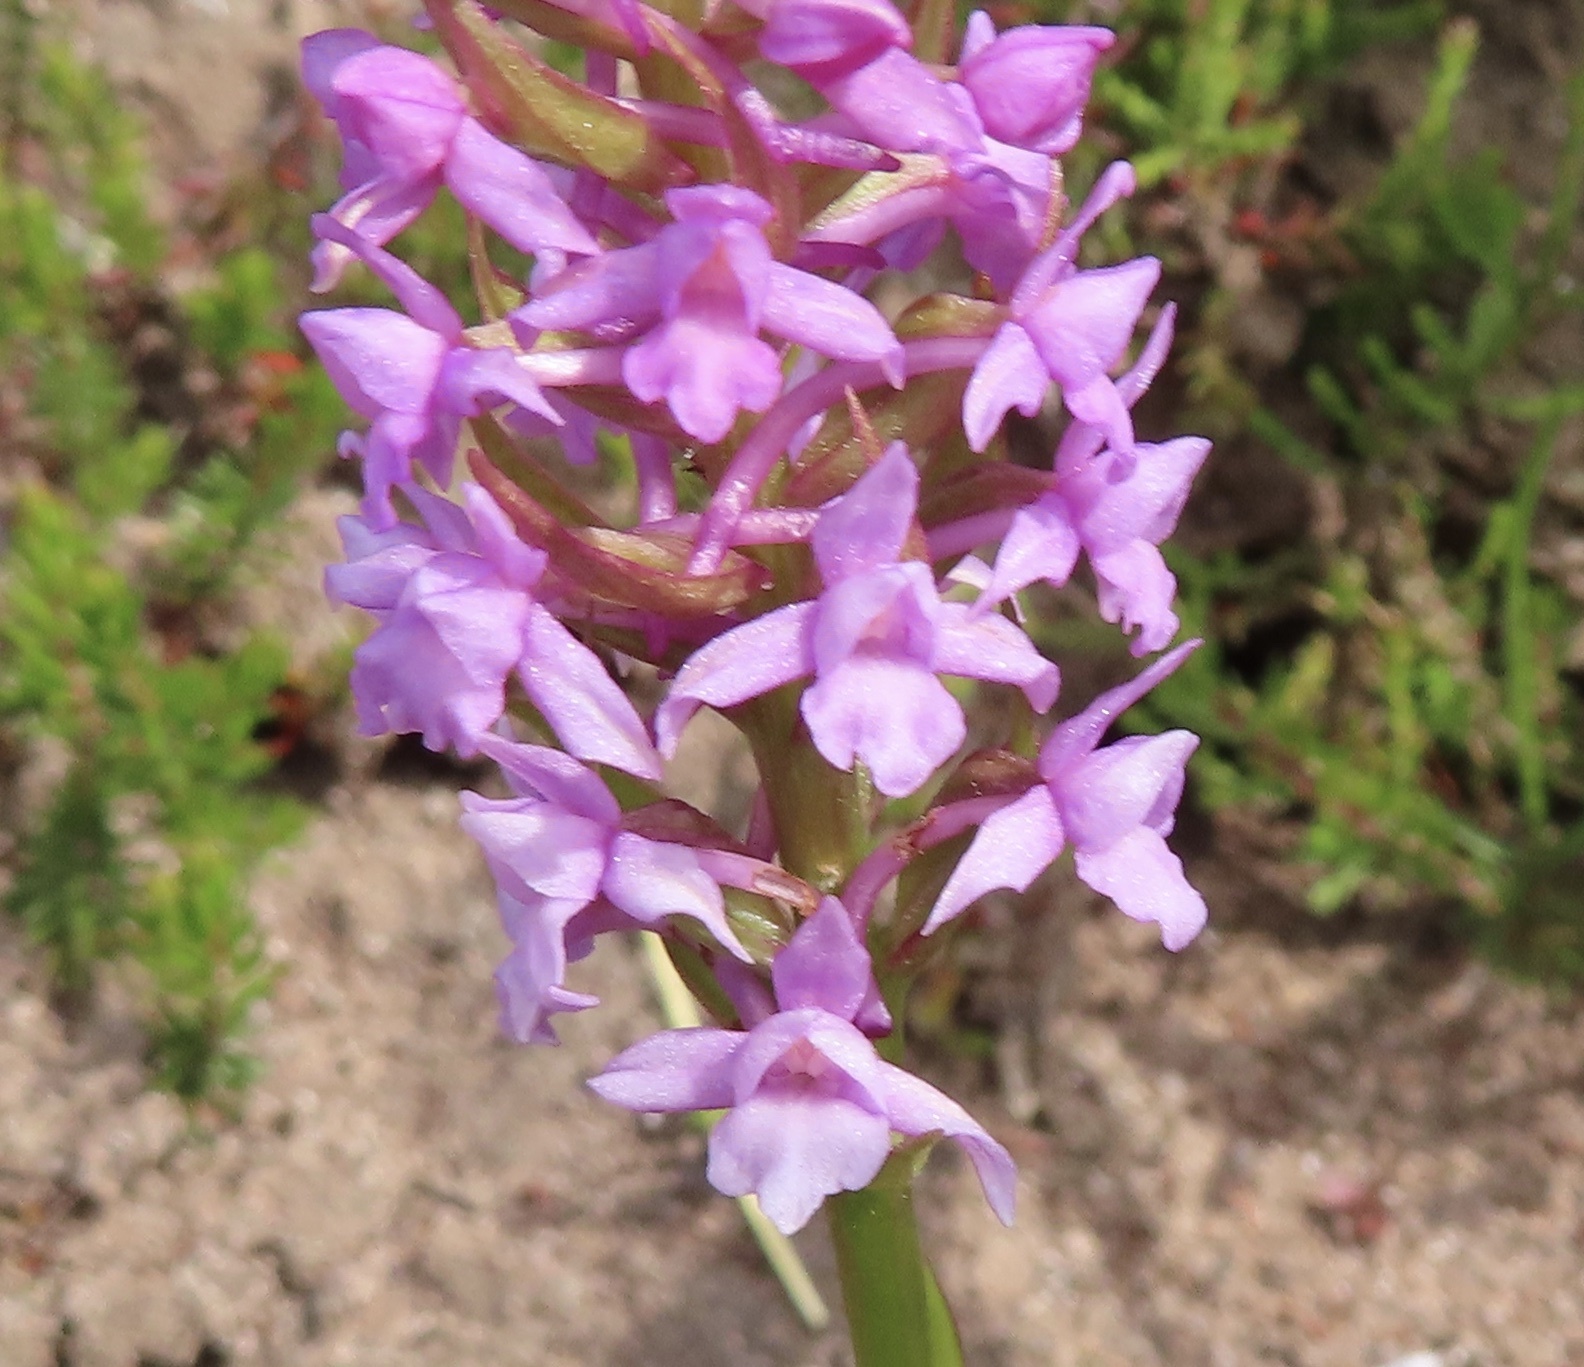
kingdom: Plantae
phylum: Tracheophyta
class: Liliopsida
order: Asparagales
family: Orchidaceae
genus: Gymnadenia
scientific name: Gymnadenia borealis
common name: Heath fragrant orchid
